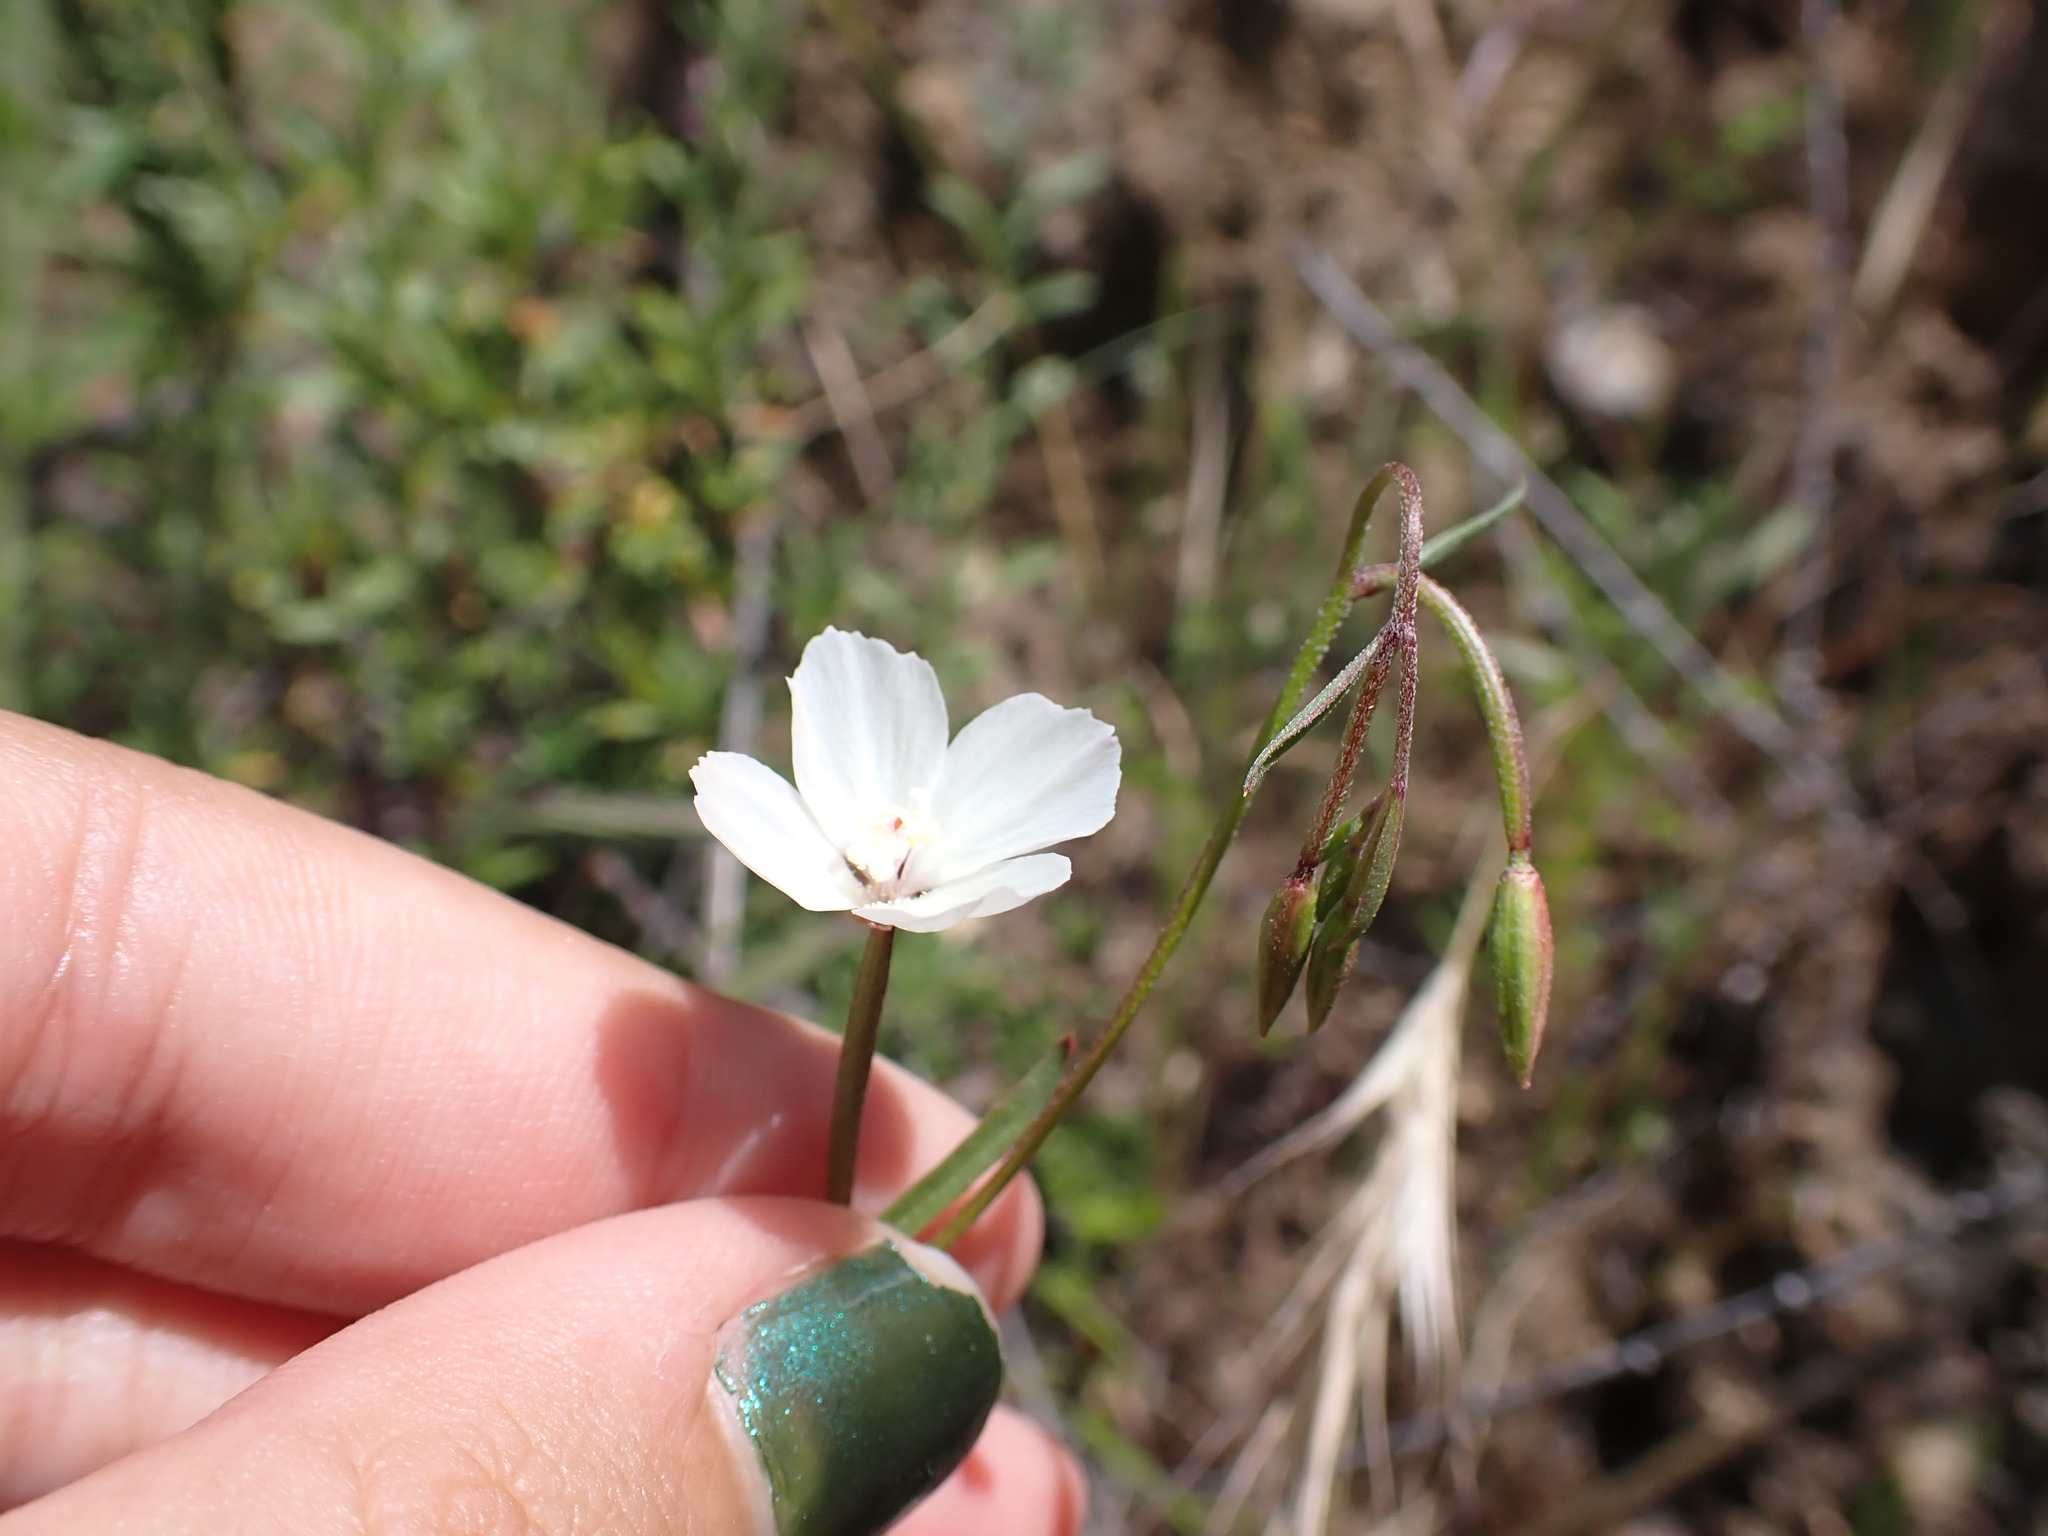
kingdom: Plantae
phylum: Tracheophyta
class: Magnoliopsida
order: Myrtales
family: Onagraceae
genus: Clarkia
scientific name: Clarkia epilobioides
